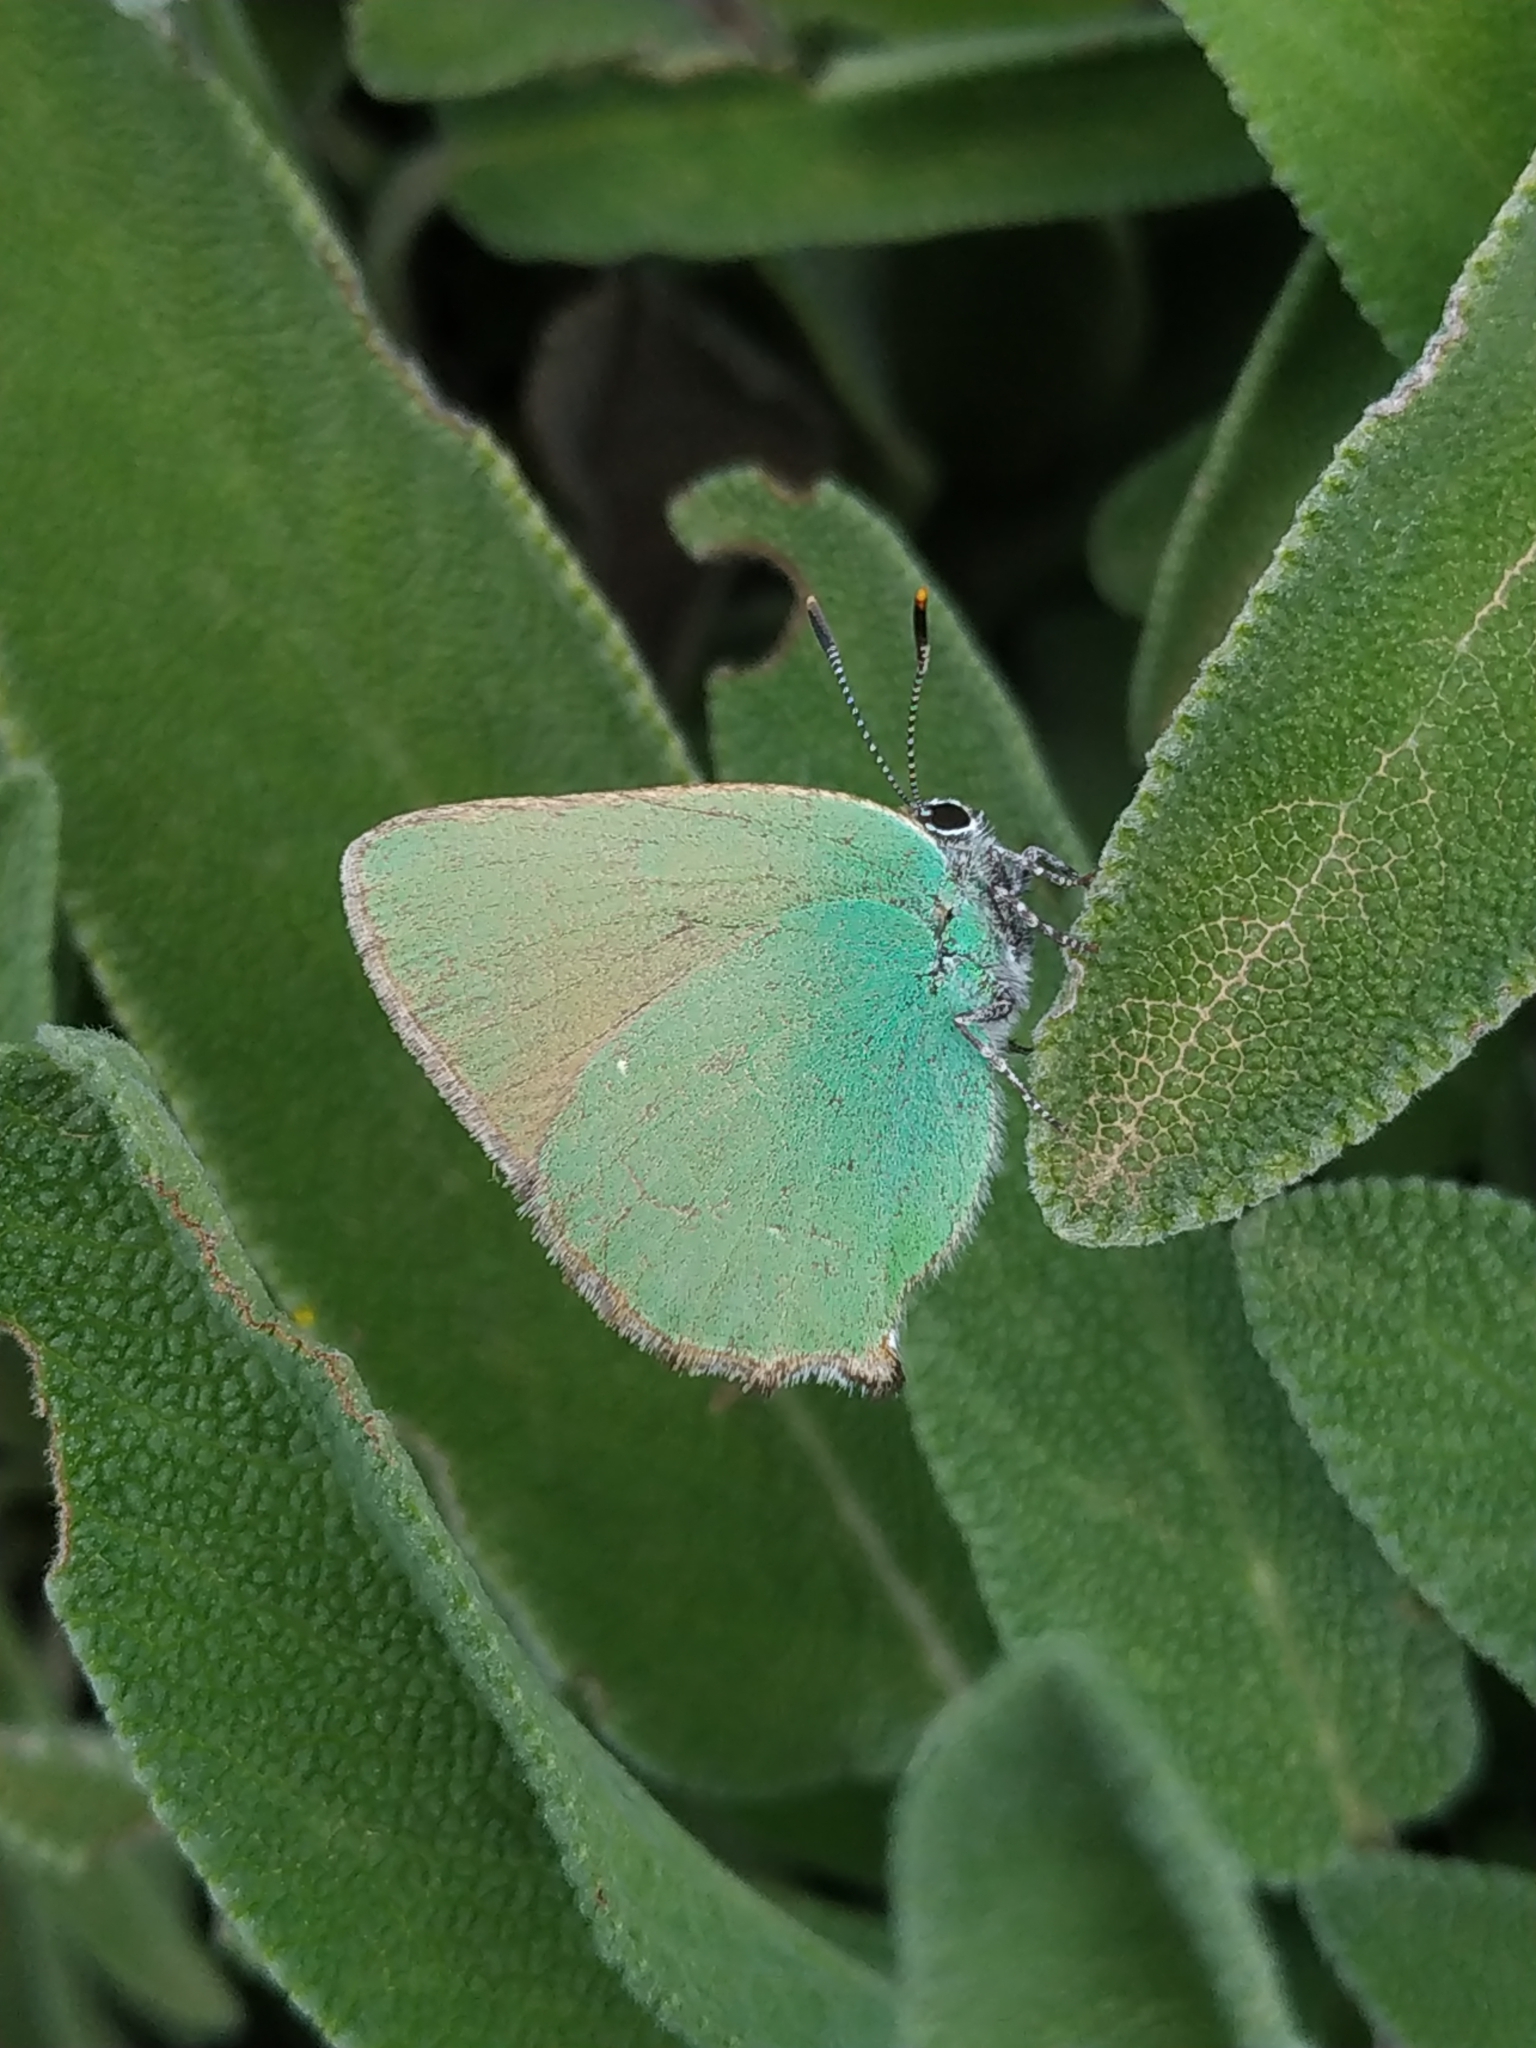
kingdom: Animalia
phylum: Arthropoda
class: Insecta
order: Lepidoptera
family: Lycaenidae
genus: Callophrys
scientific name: Callophrys rubi
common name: Green hairstreak
